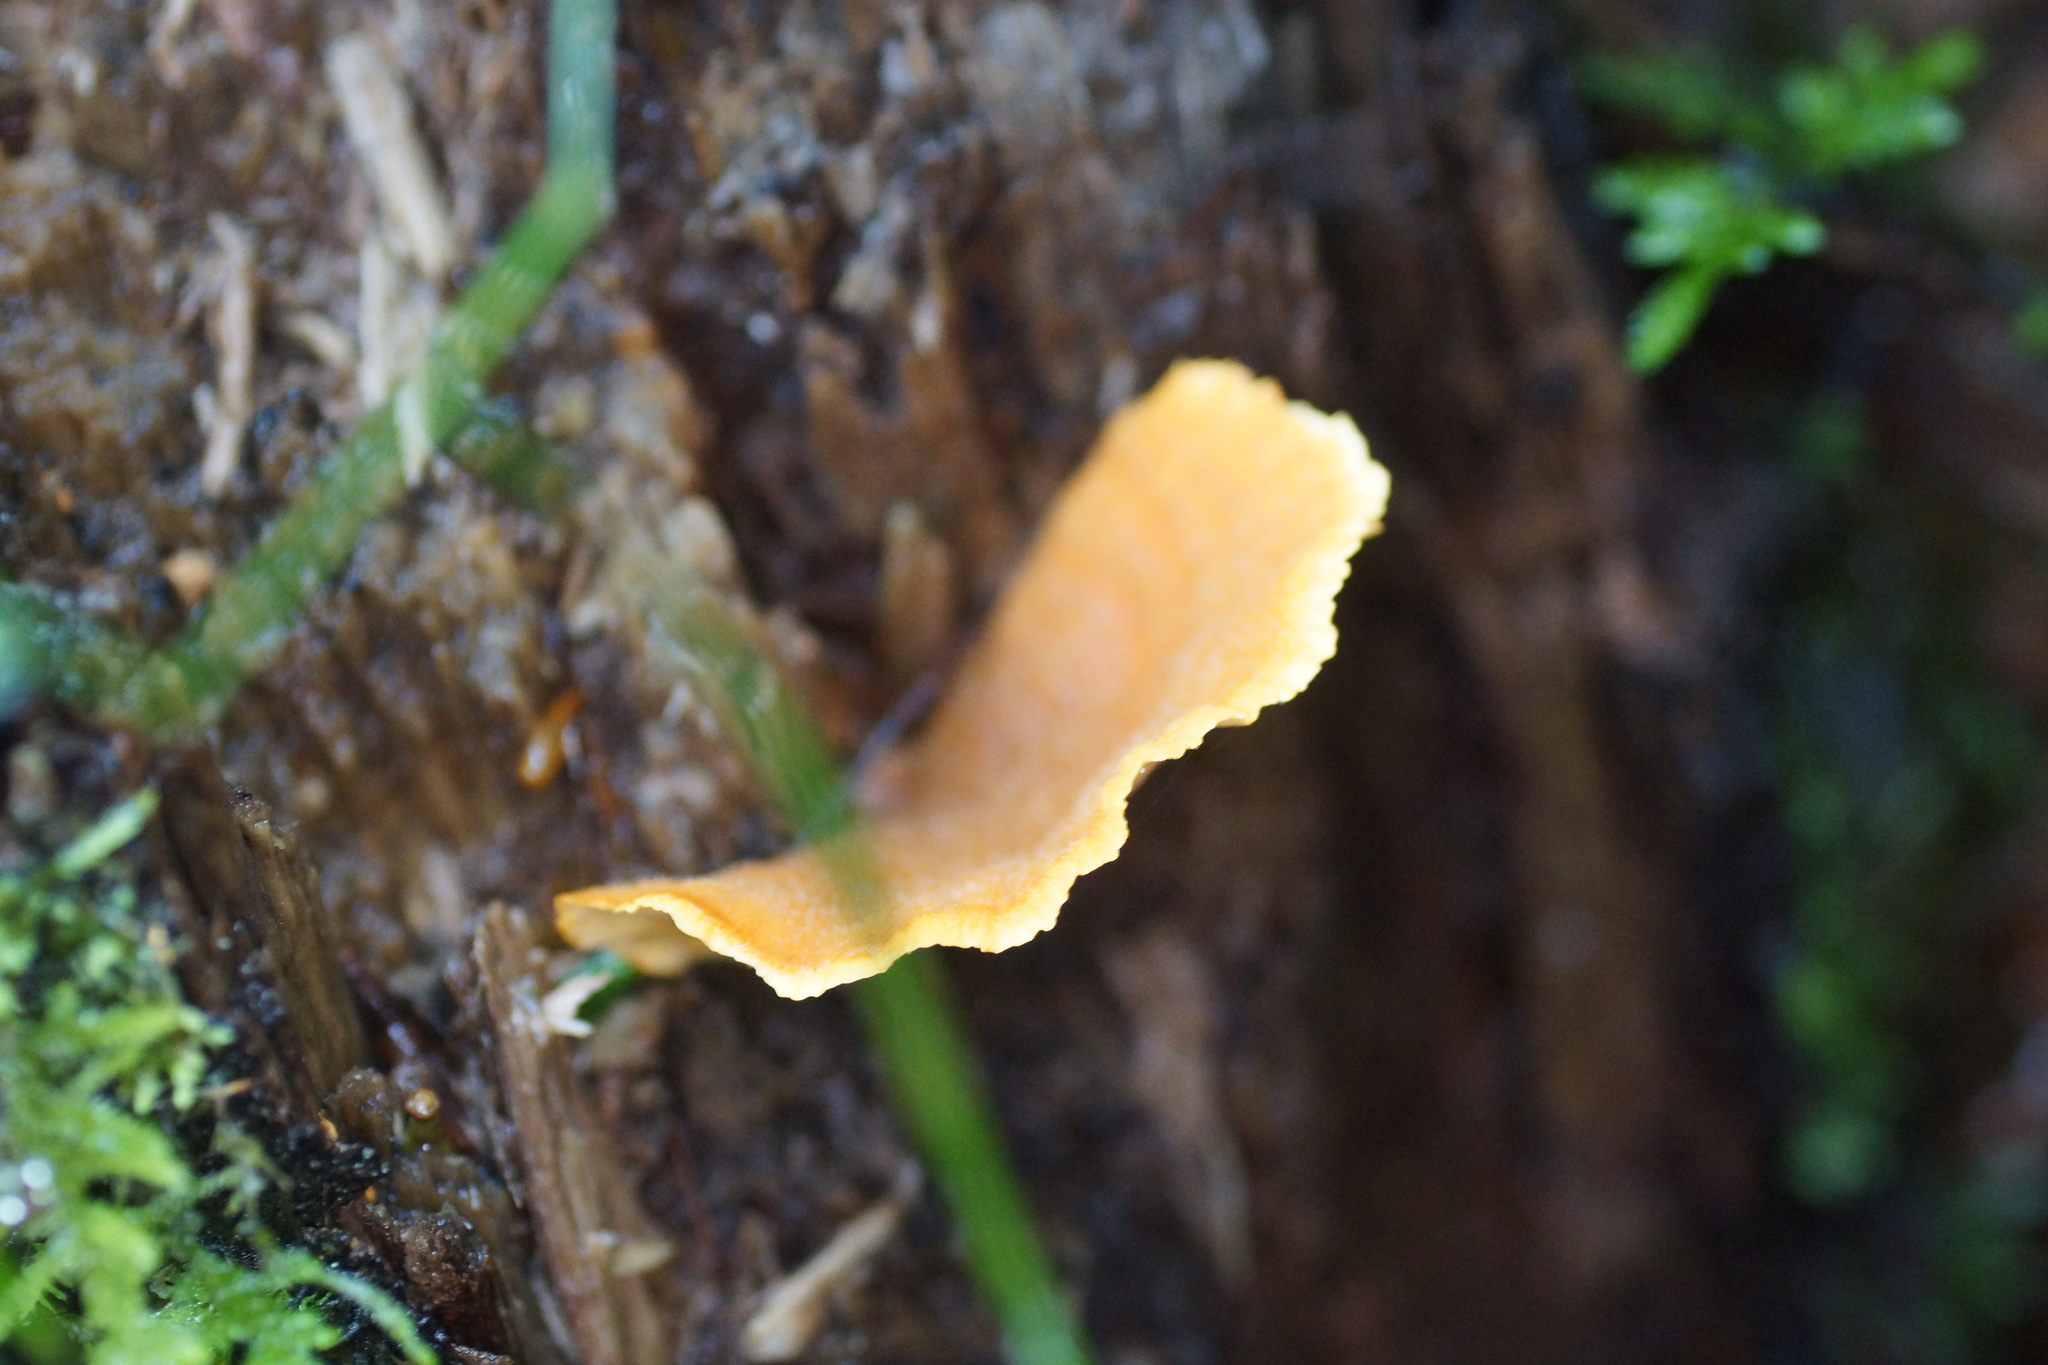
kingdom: Fungi
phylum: Basidiomycota
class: Agaricomycetes
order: Russulales
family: Stereaceae
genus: Stereum
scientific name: Stereum versicolor
